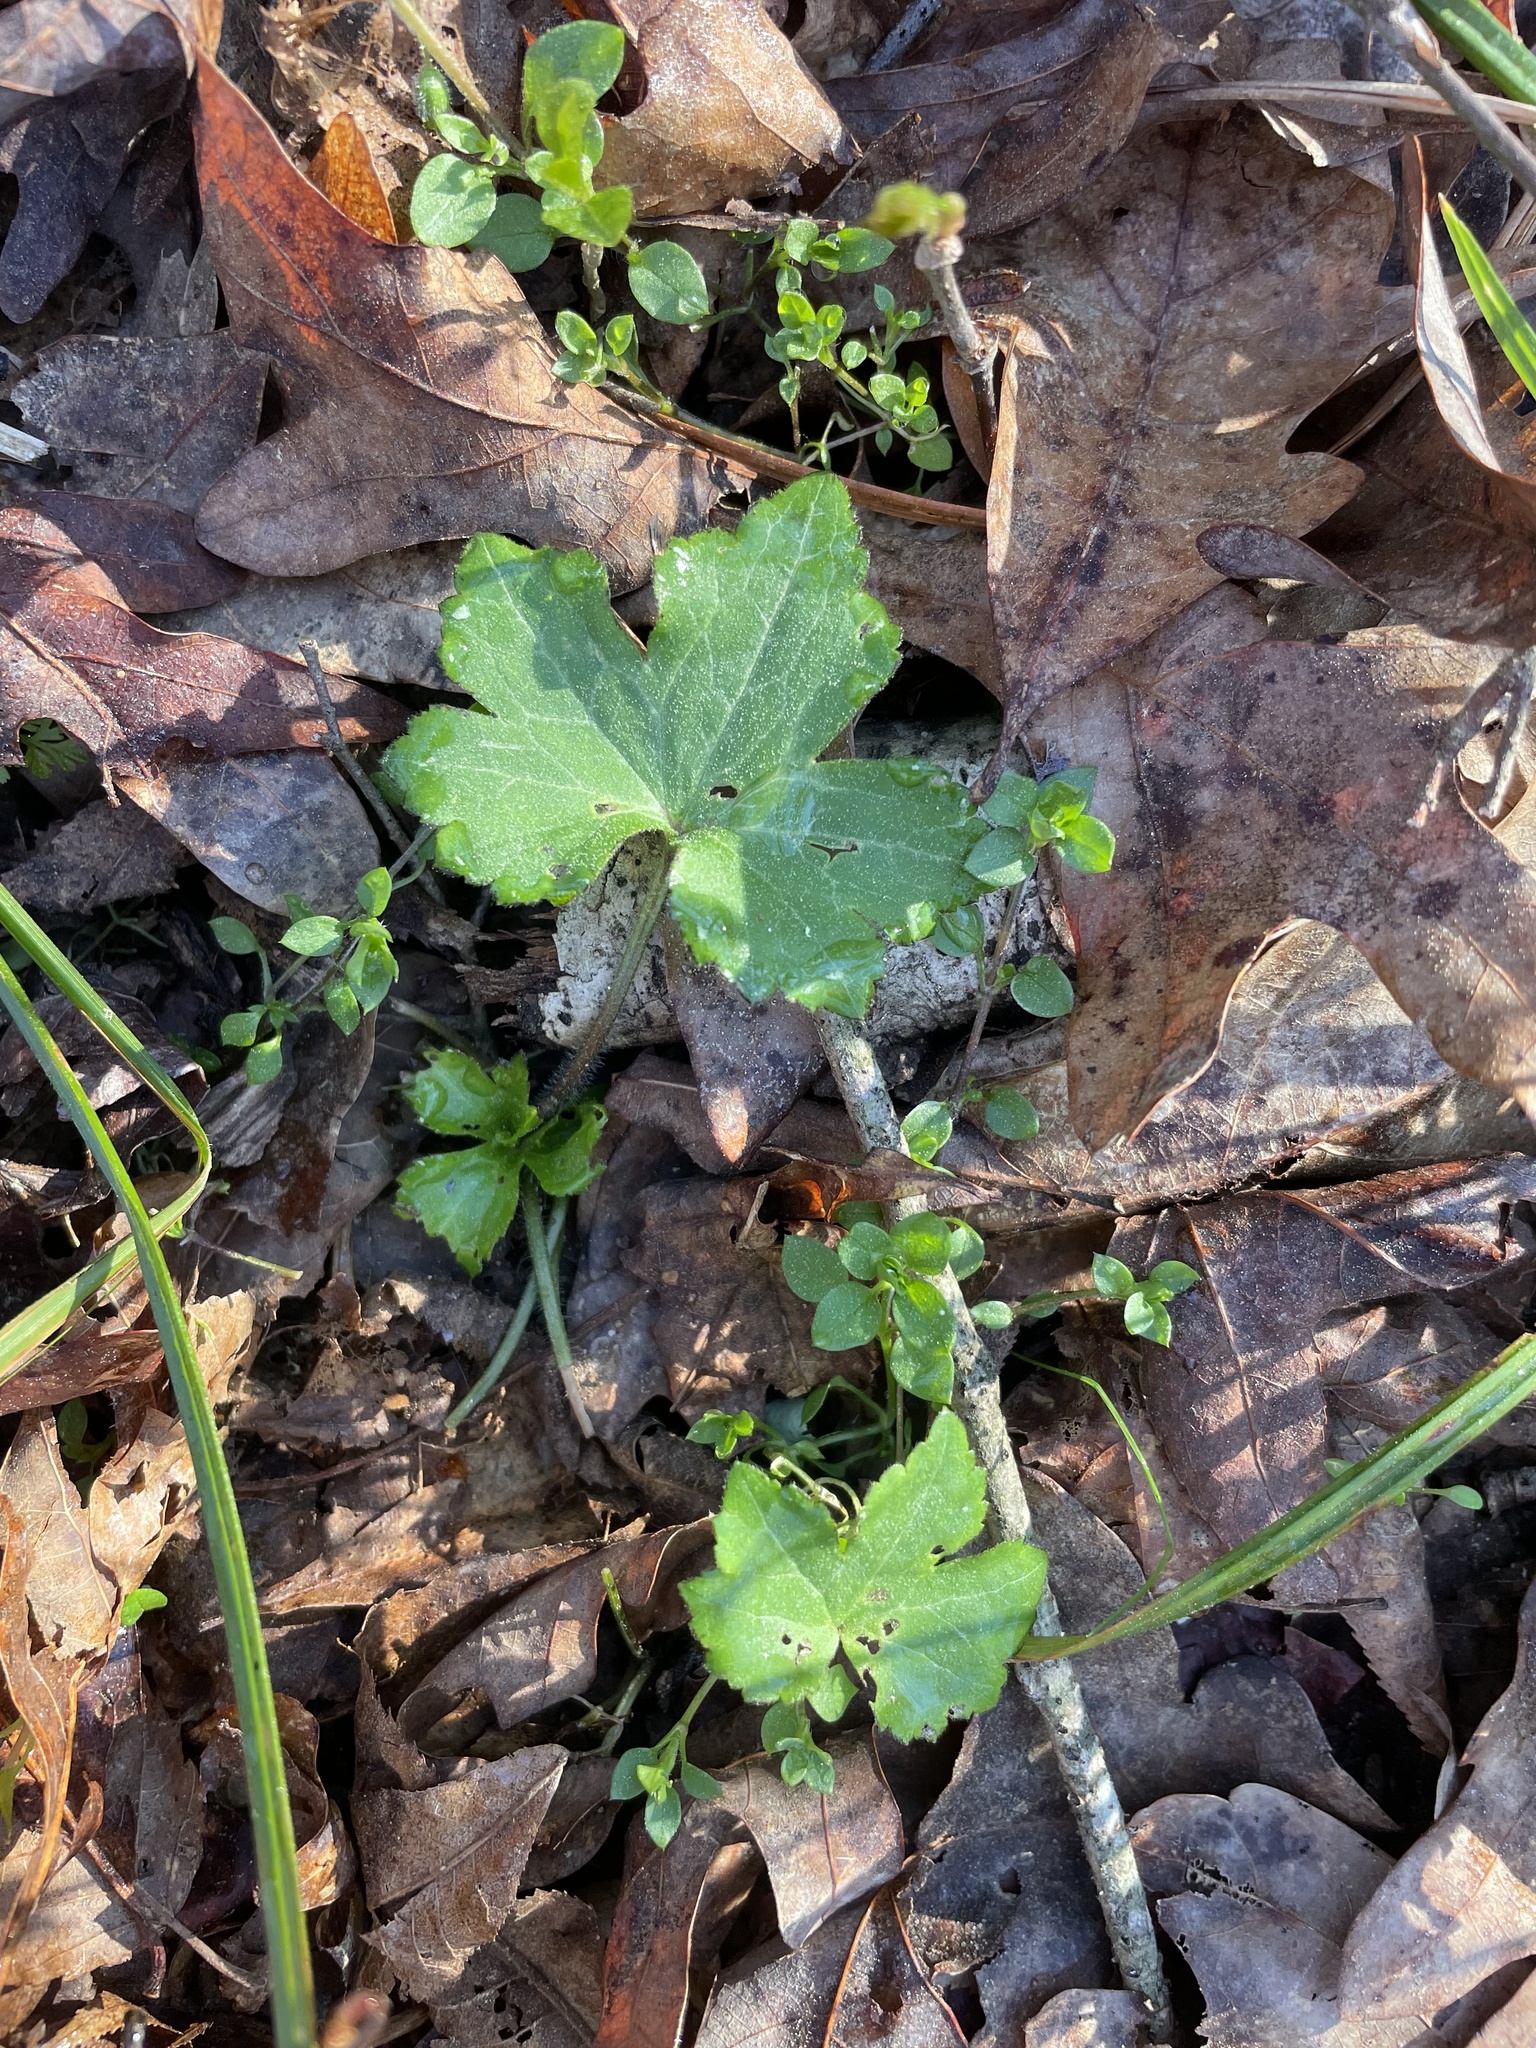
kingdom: Plantae
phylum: Tracheophyta
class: Magnoliopsida
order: Ranunculales
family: Ranunculaceae
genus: Ranunculus
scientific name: Ranunculus recurvatus
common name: Blisterwort
